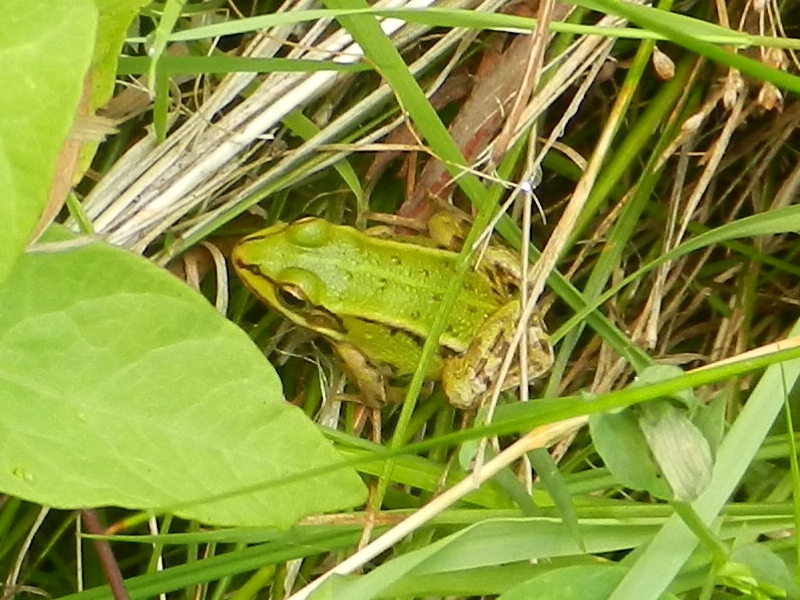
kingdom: Animalia
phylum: Chordata
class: Amphibia
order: Anura
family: Ranidae
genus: Pelophylax
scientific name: Pelophylax
